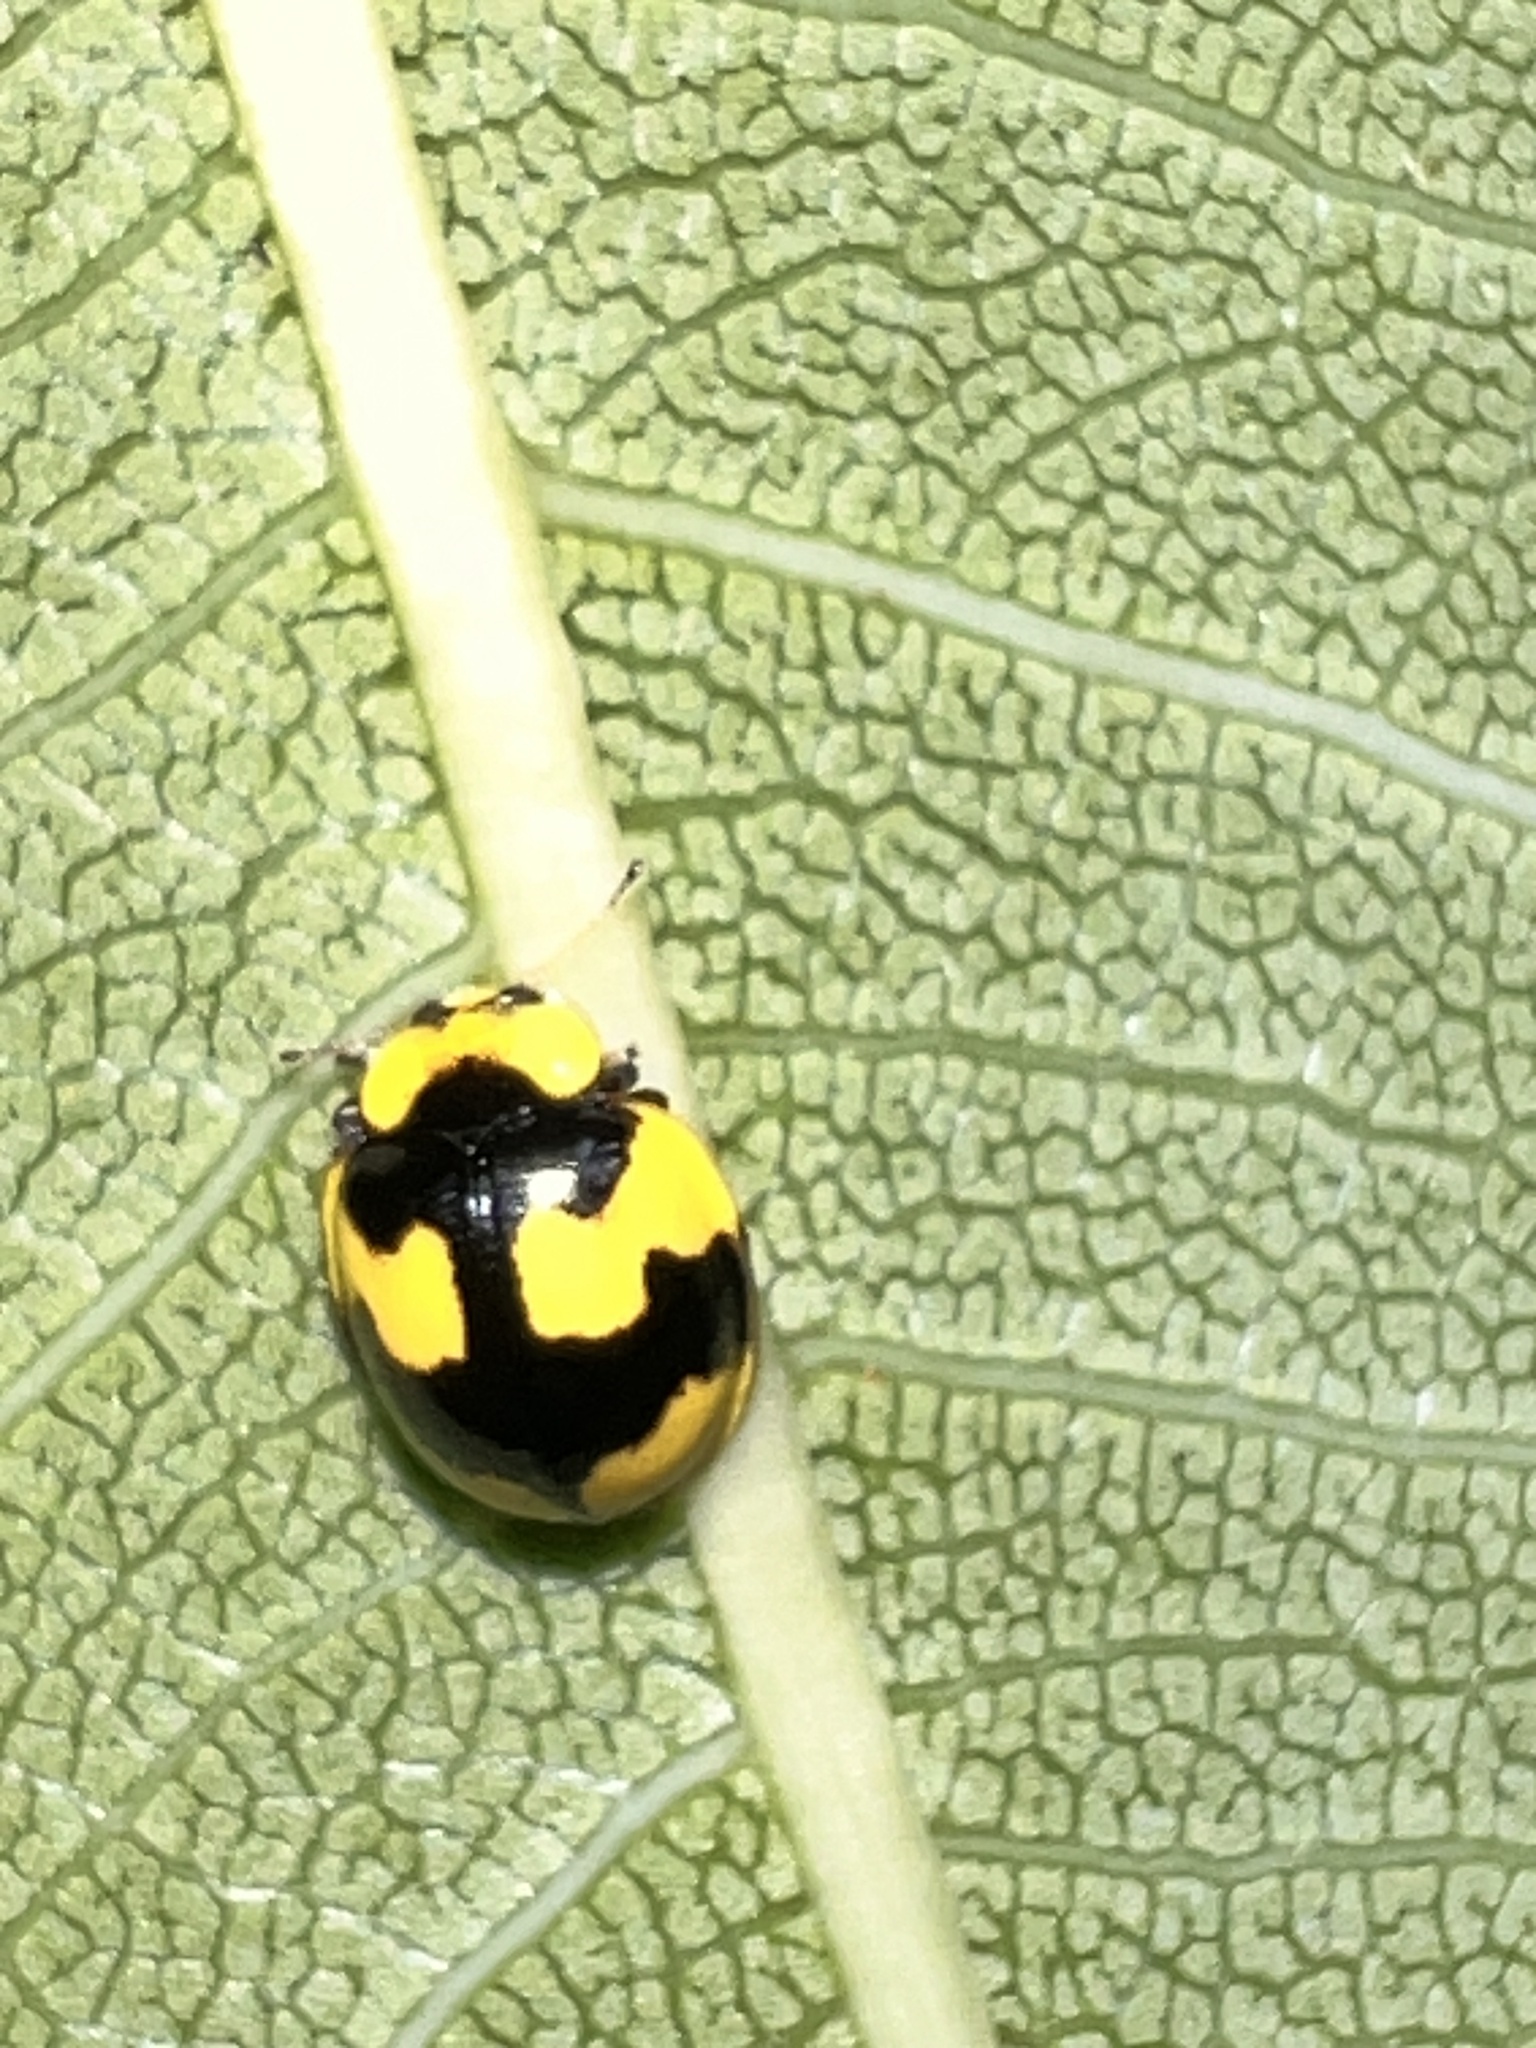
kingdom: Animalia
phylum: Arthropoda
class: Insecta
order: Coleoptera
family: Coccinellidae
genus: Illeis
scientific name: Illeis galbula
